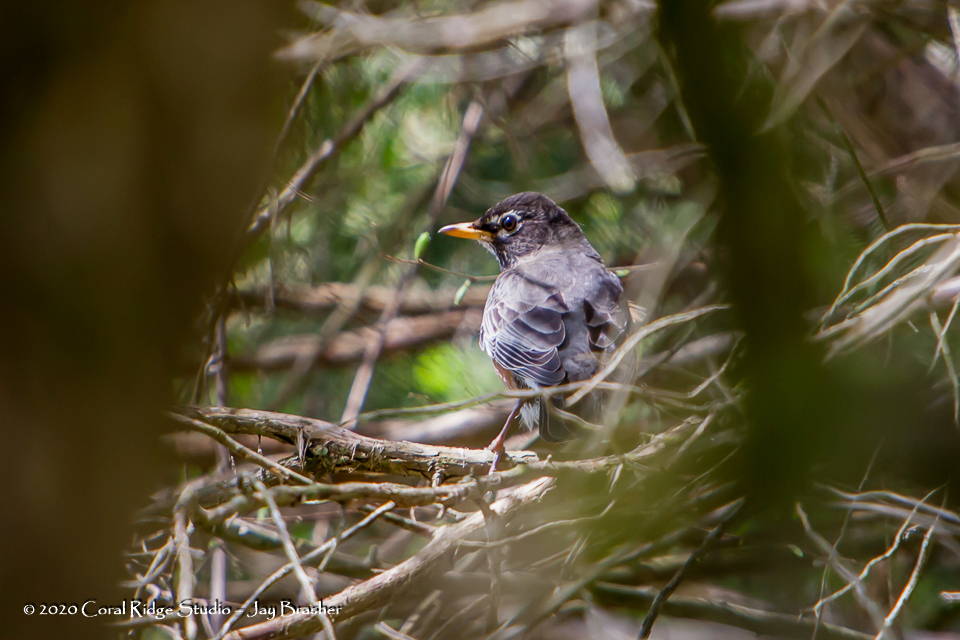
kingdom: Animalia
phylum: Chordata
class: Aves
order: Passeriformes
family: Turdidae
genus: Turdus
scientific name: Turdus migratorius
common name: American robin
